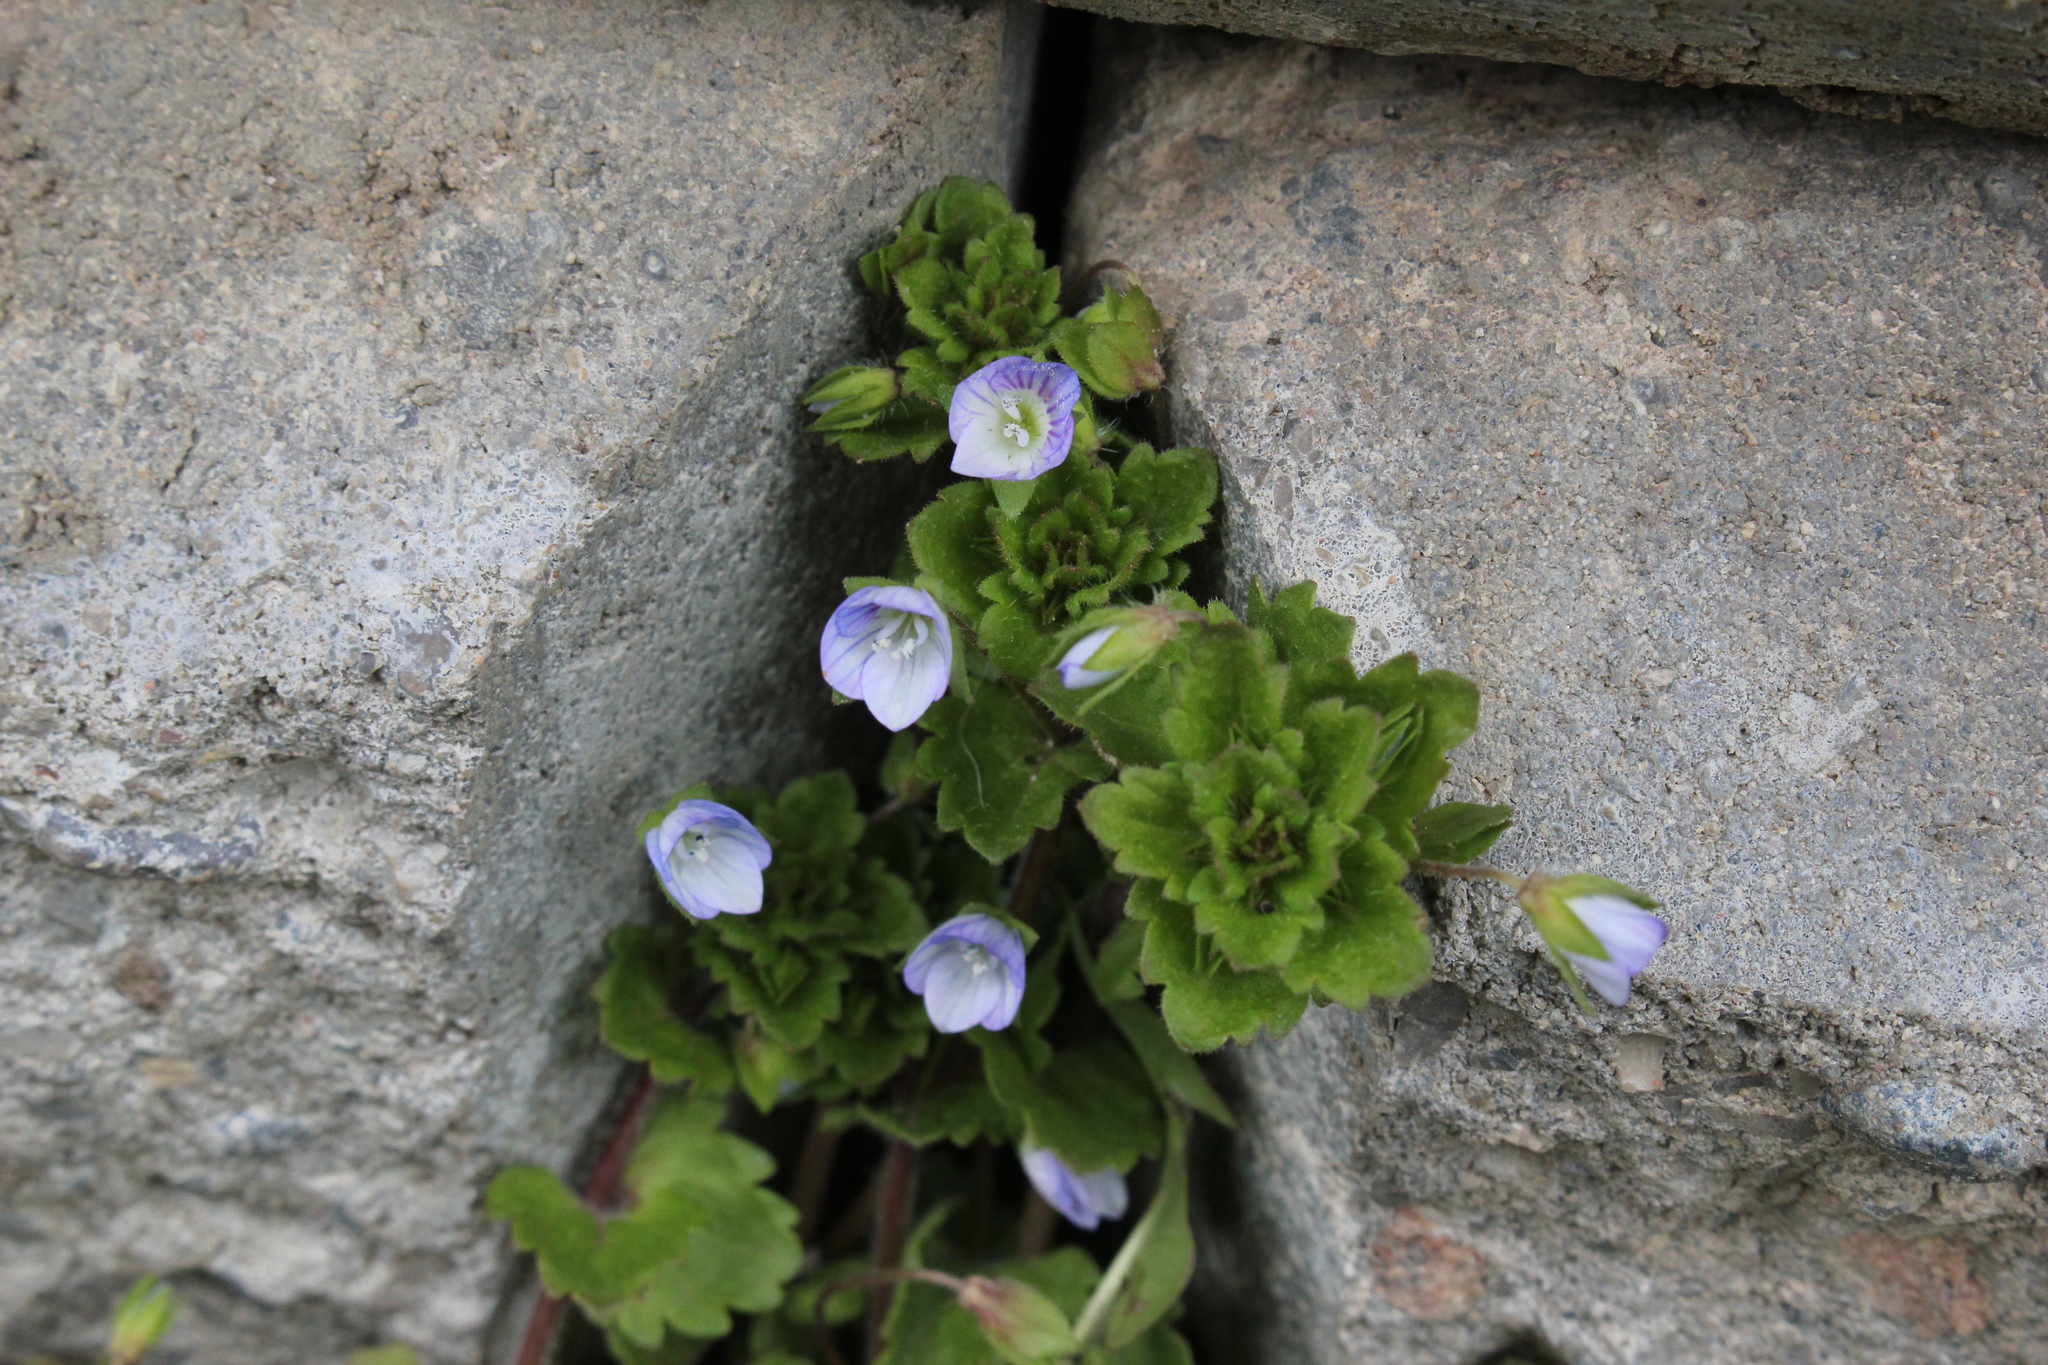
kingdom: Plantae
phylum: Tracheophyta
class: Magnoliopsida
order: Lamiales
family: Plantaginaceae
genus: Veronica
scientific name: Veronica persica
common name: Common field-speedwell
